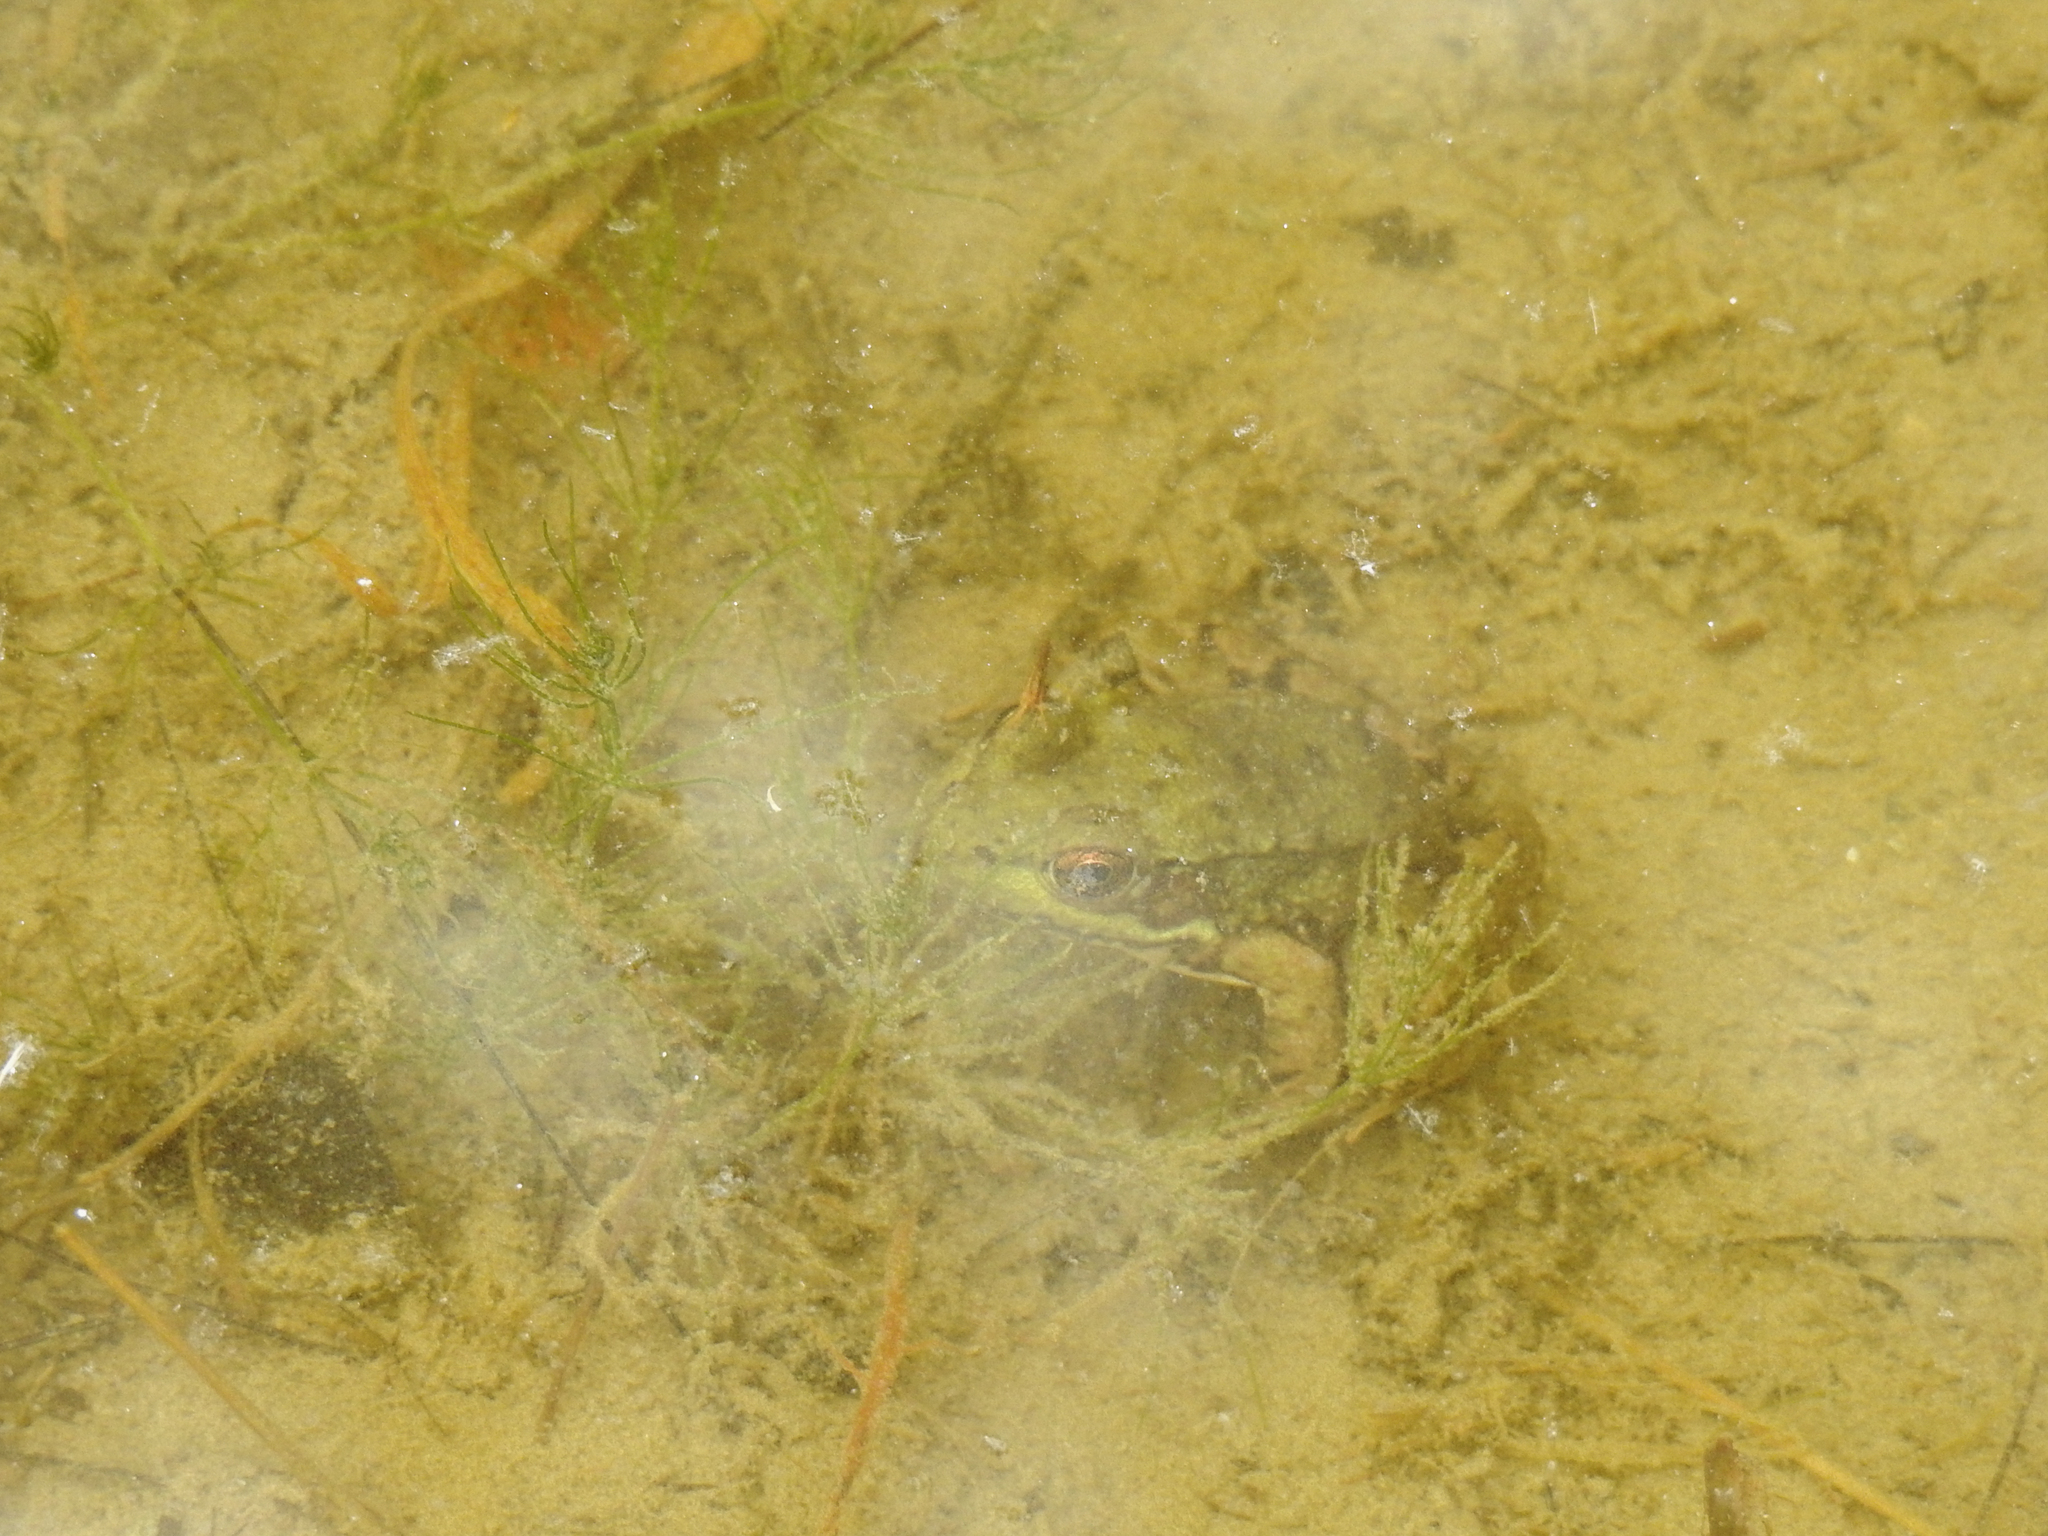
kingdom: Animalia
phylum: Chordata
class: Amphibia
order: Anura
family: Ranidae
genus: Lithobates
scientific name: Lithobates clamitans
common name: Green frog
